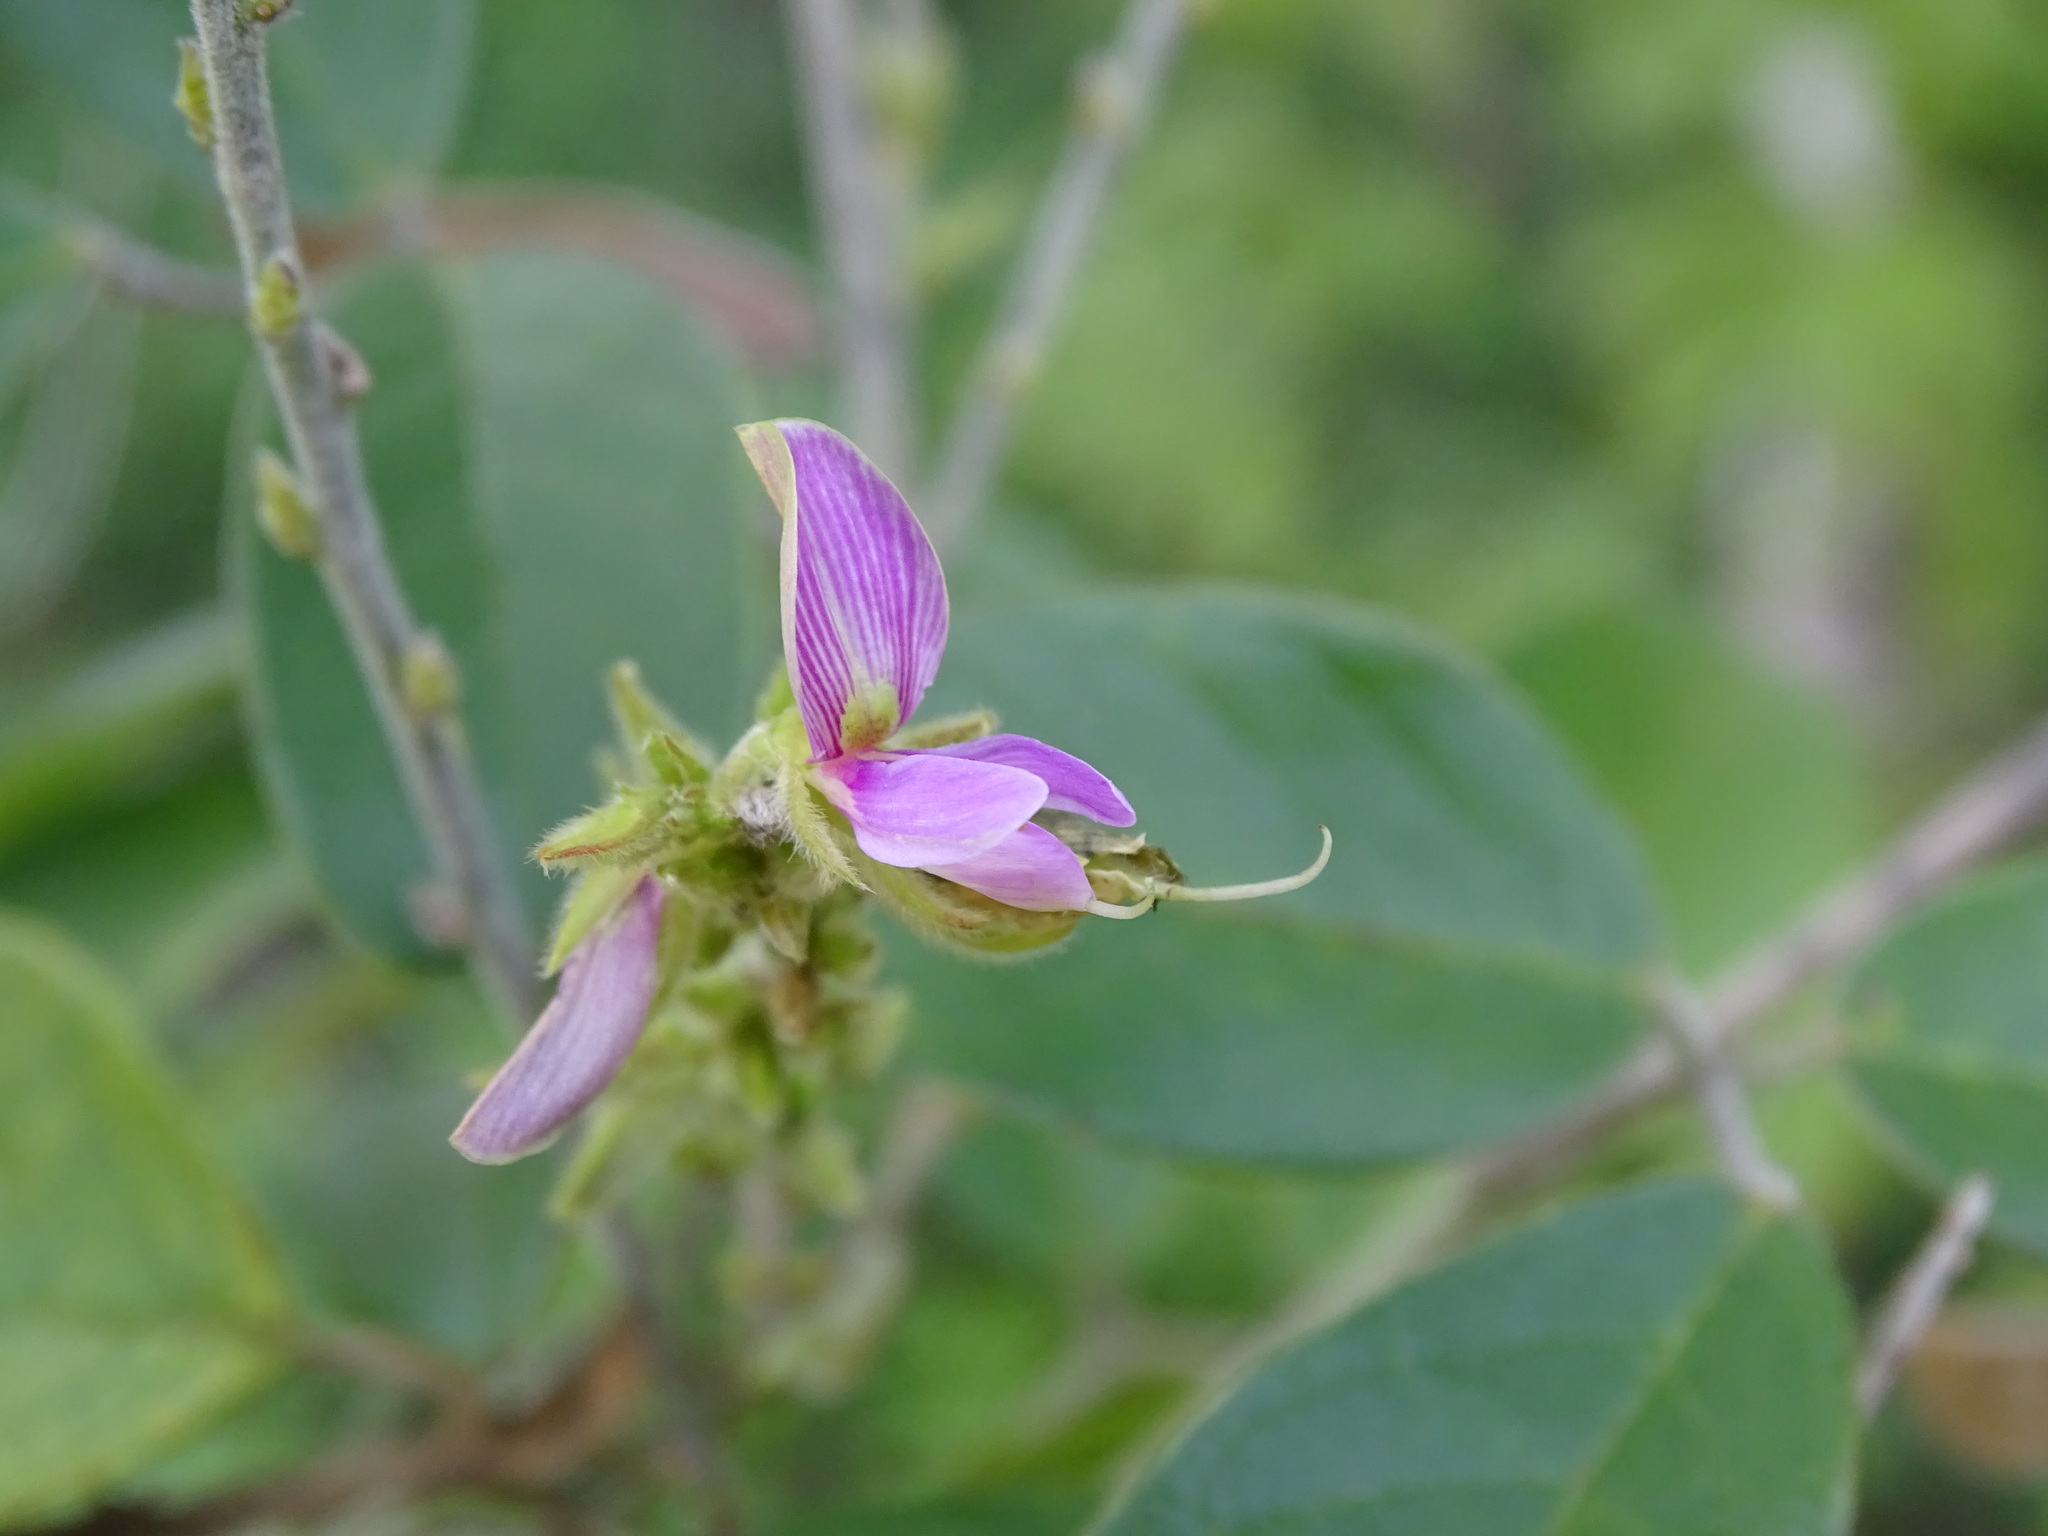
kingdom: Plantae
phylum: Tracheophyta
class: Magnoliopsida
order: Fabales
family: Fabaceae
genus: Galactia
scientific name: Galactia striata
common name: Florida hammock milkpea
